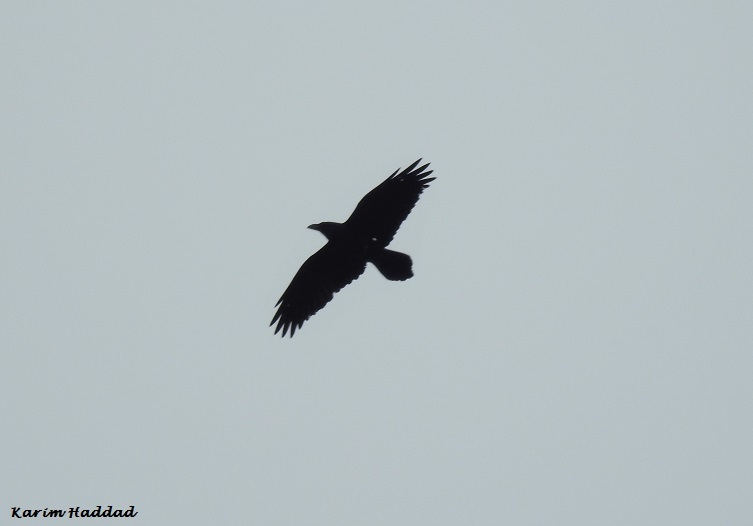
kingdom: Animalia
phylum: Chordata
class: Aves
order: Passeriformes
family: Corvidae
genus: Corvus
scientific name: Corvus corax
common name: Common raven
